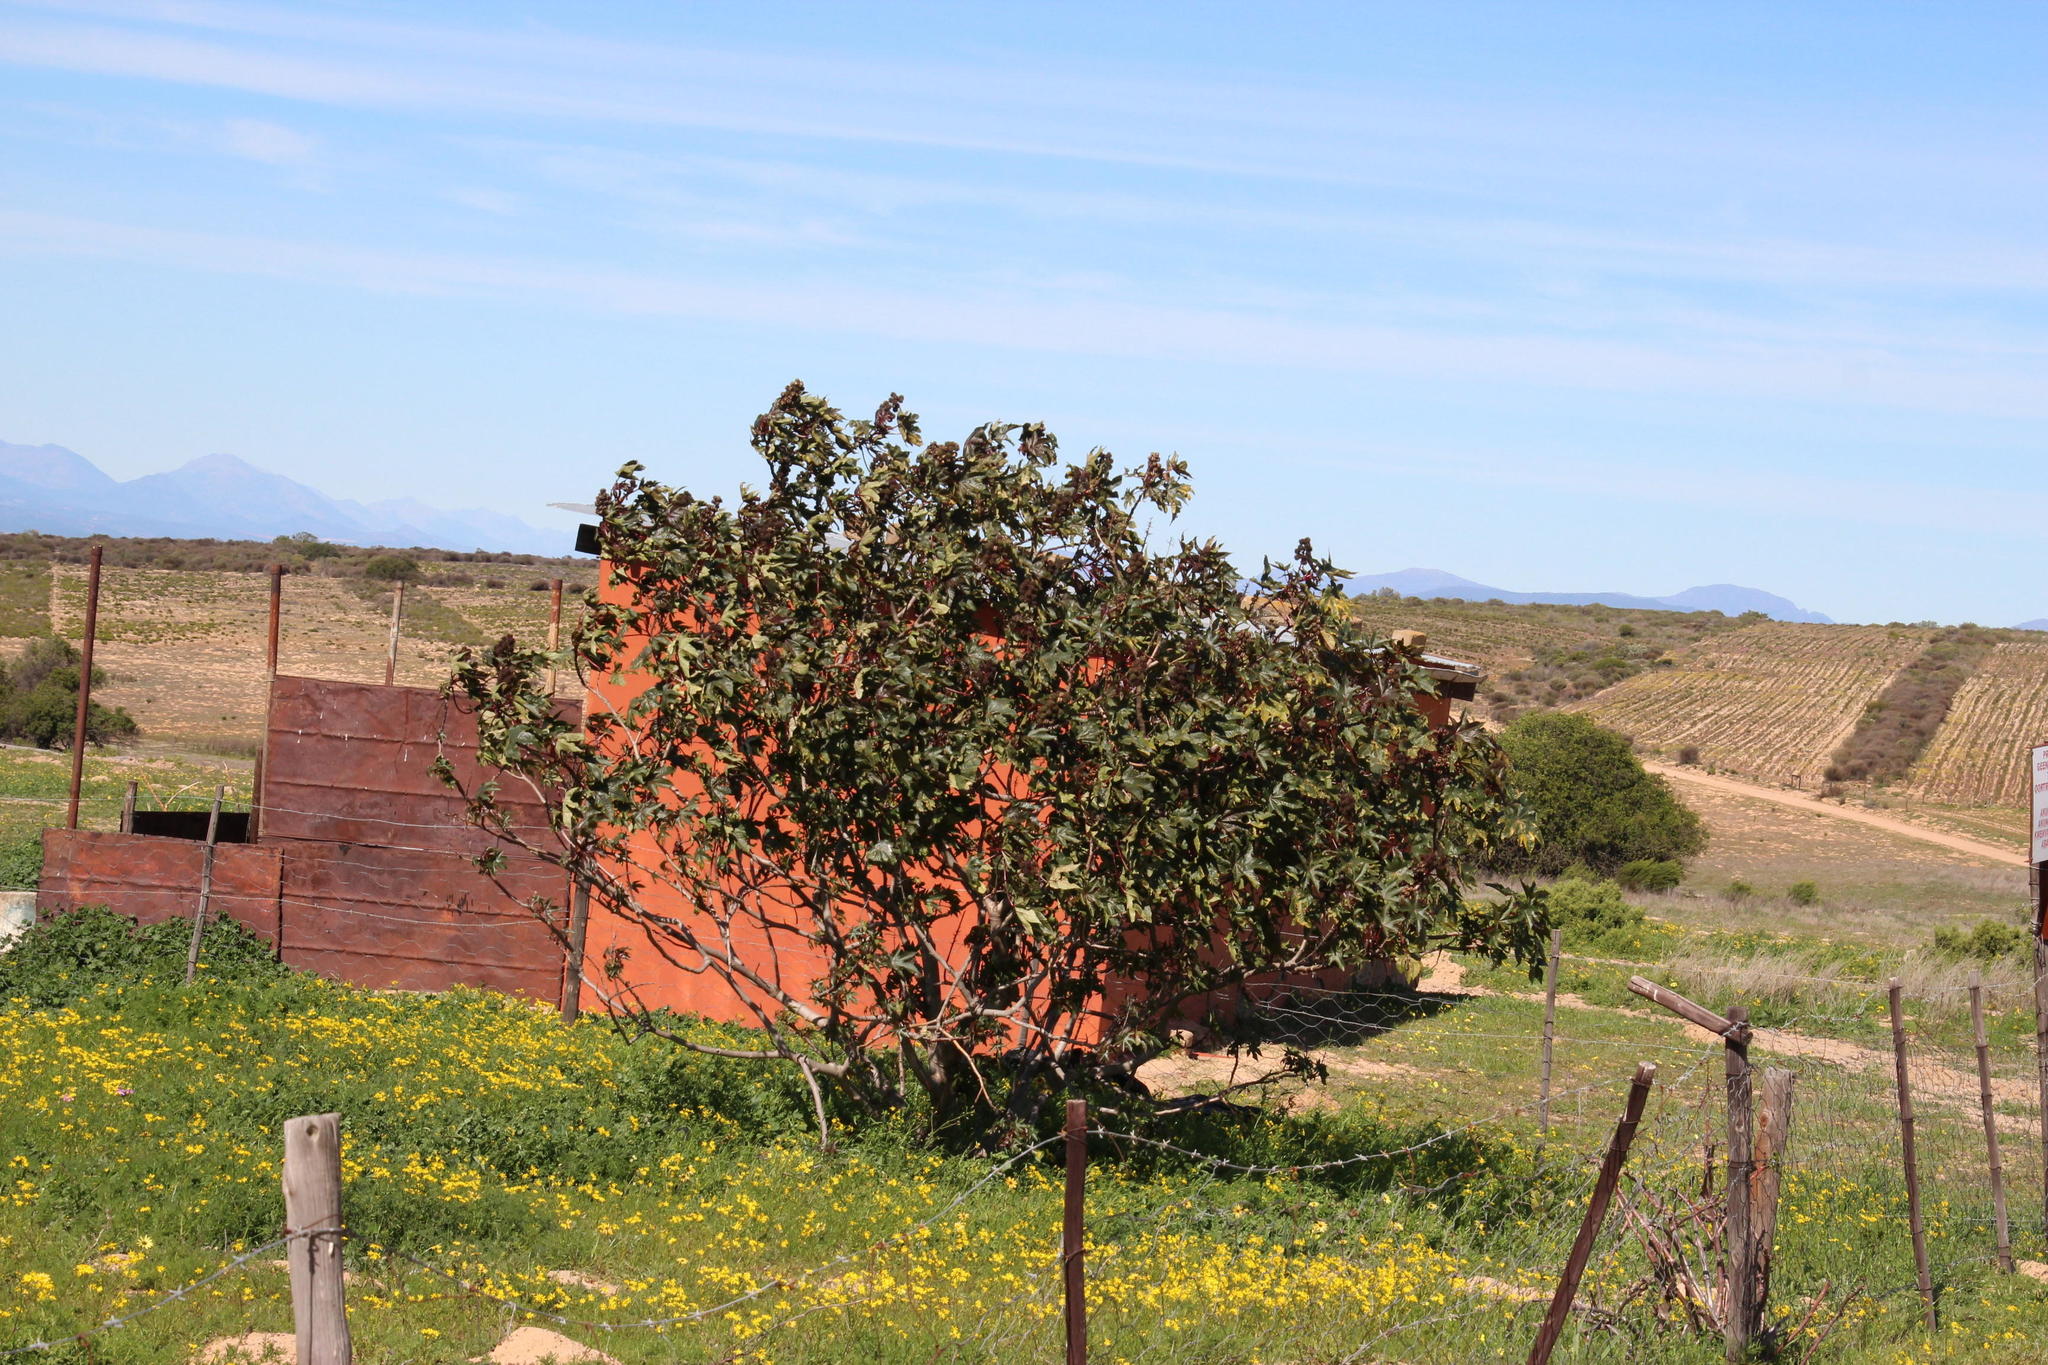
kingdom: Plantae
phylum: Tracheophyta
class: Magnoliopsida
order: Malpighiales
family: Euphorbiaceae
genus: Ricinus
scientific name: Ricinus communis
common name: Castor-oil-plant
